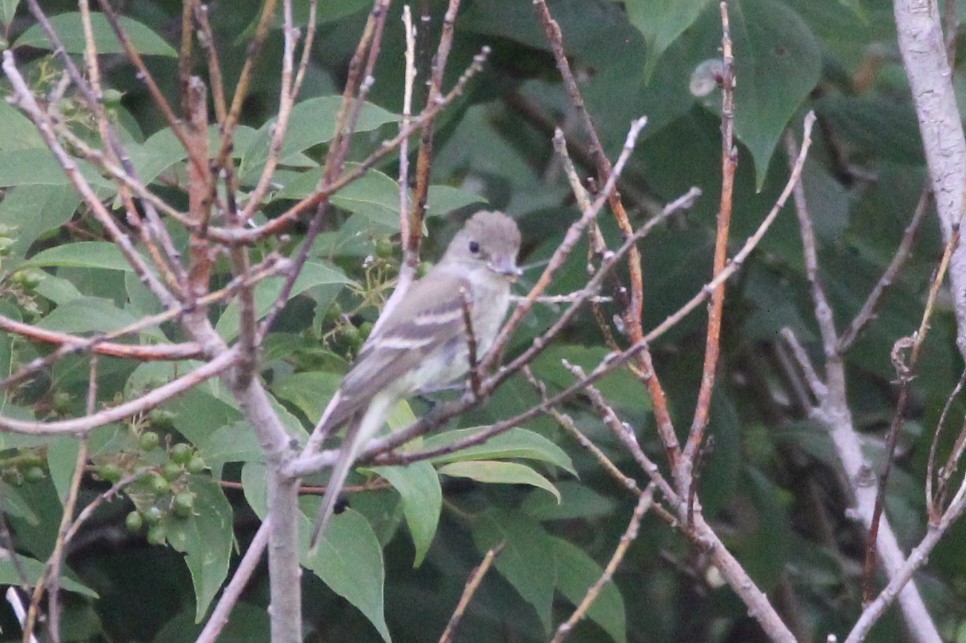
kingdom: Animalia
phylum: Chordata
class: Aves
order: Passeriformes
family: Tyrannidae
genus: Empidonax
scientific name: Empidonax traillii
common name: Willow flycatcher
